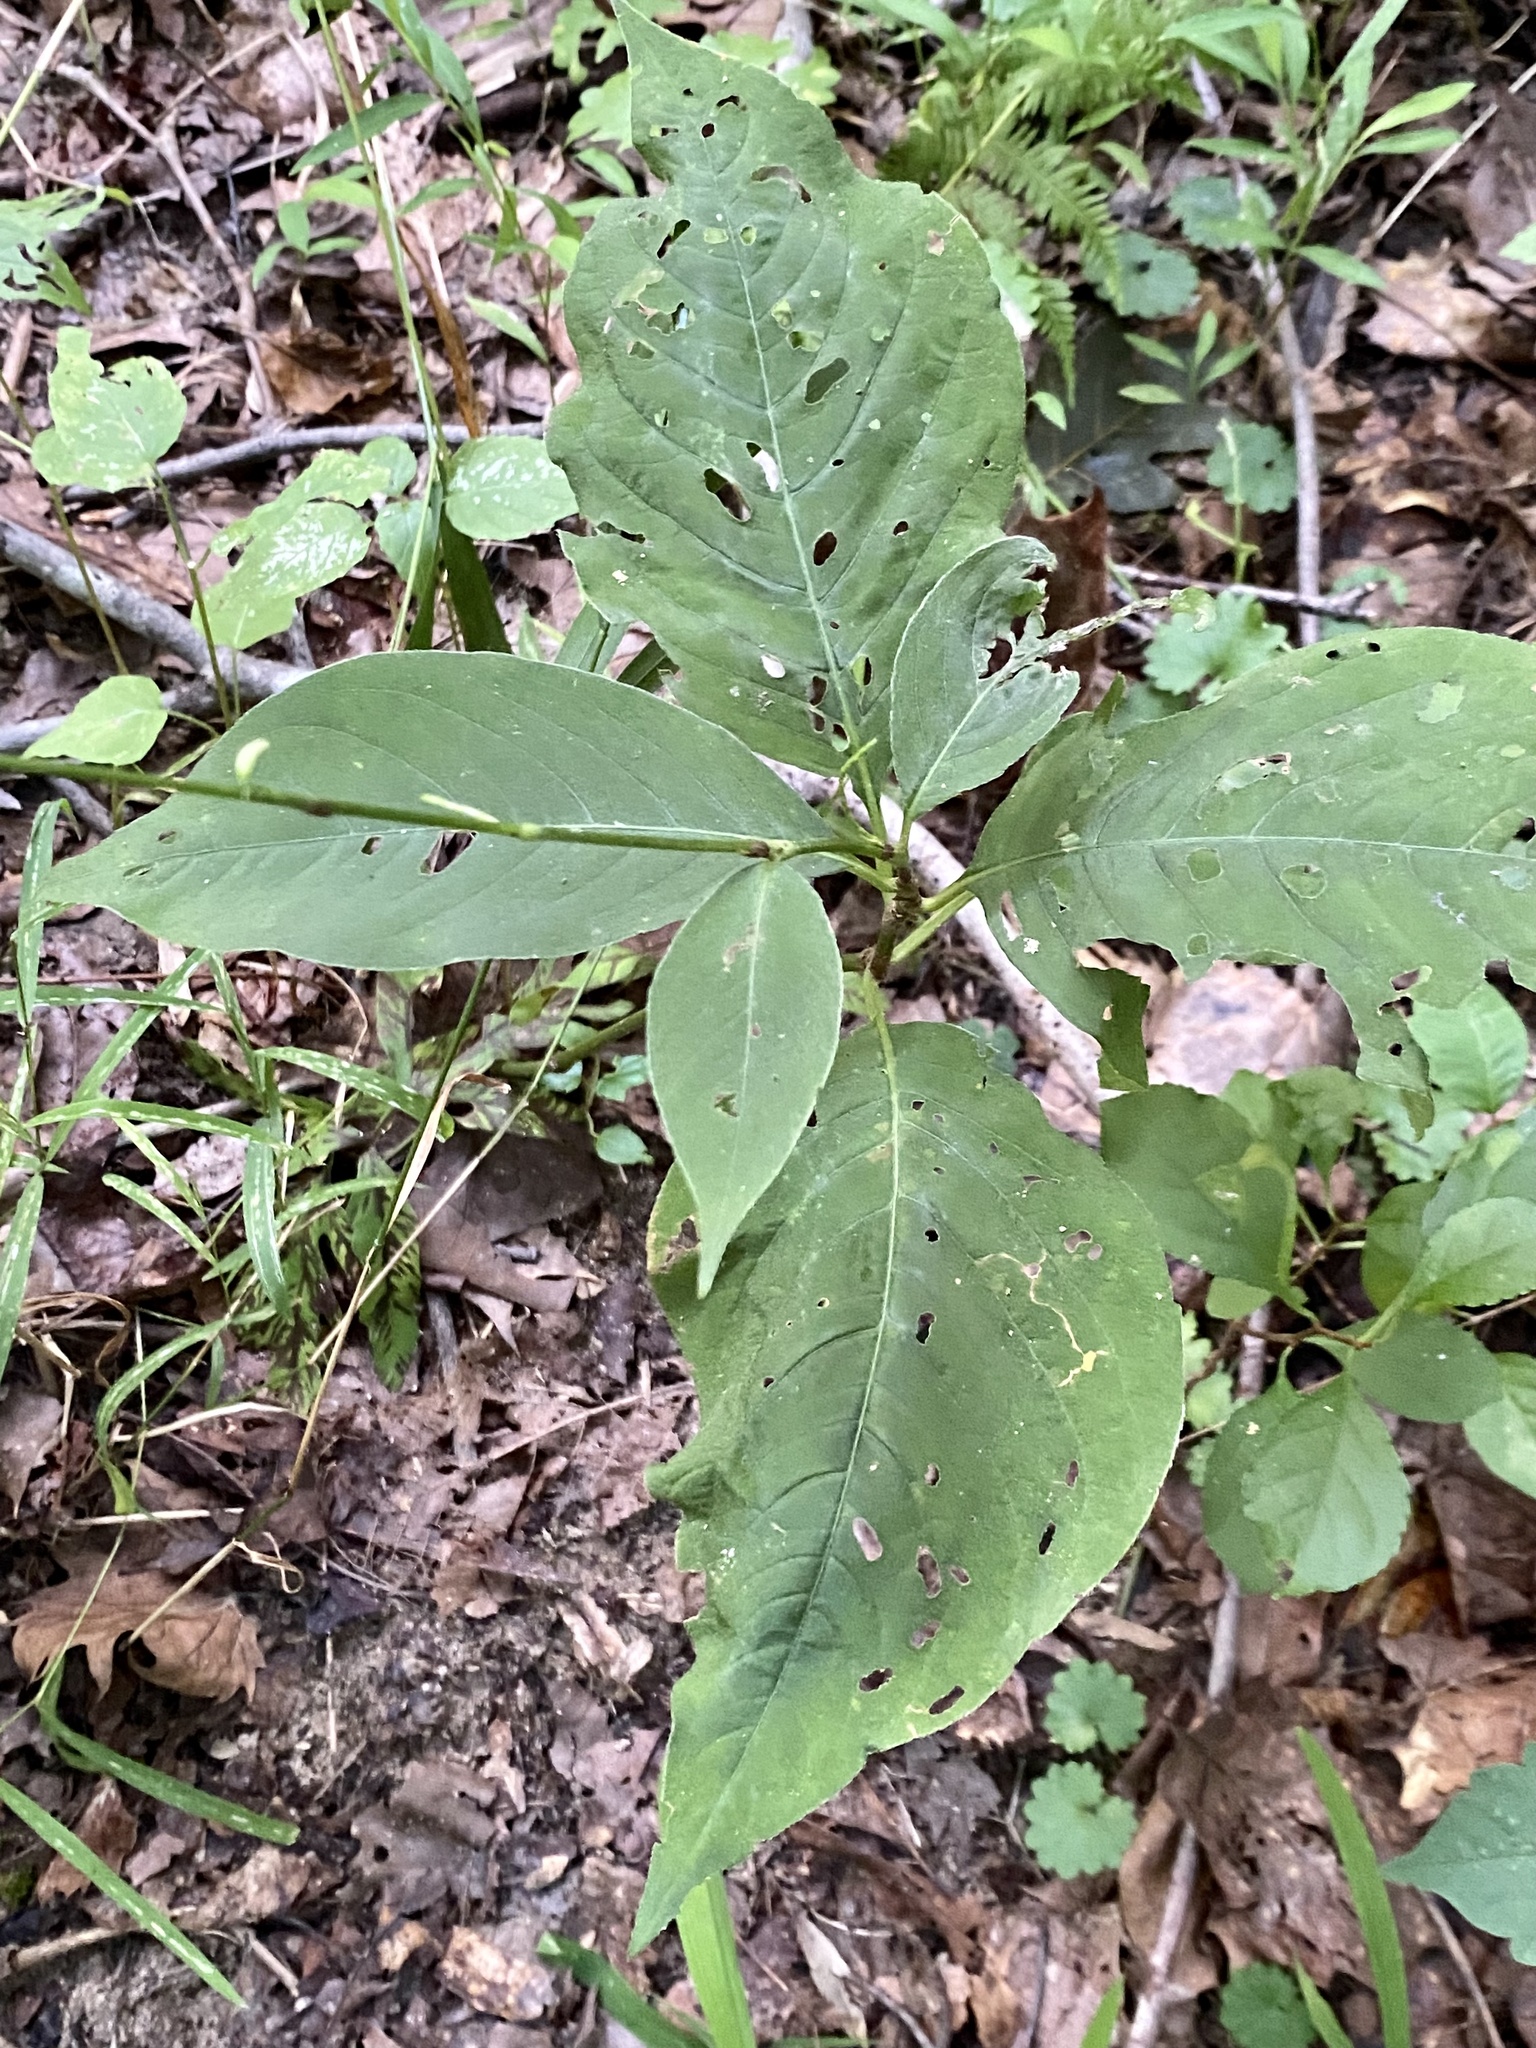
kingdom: Plantae
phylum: Tracheophyta
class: Magnoliopsida
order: Caryophyllales
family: Polygonaceae
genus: Persicaria
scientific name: Persicaria virginiana
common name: Jumpseed
